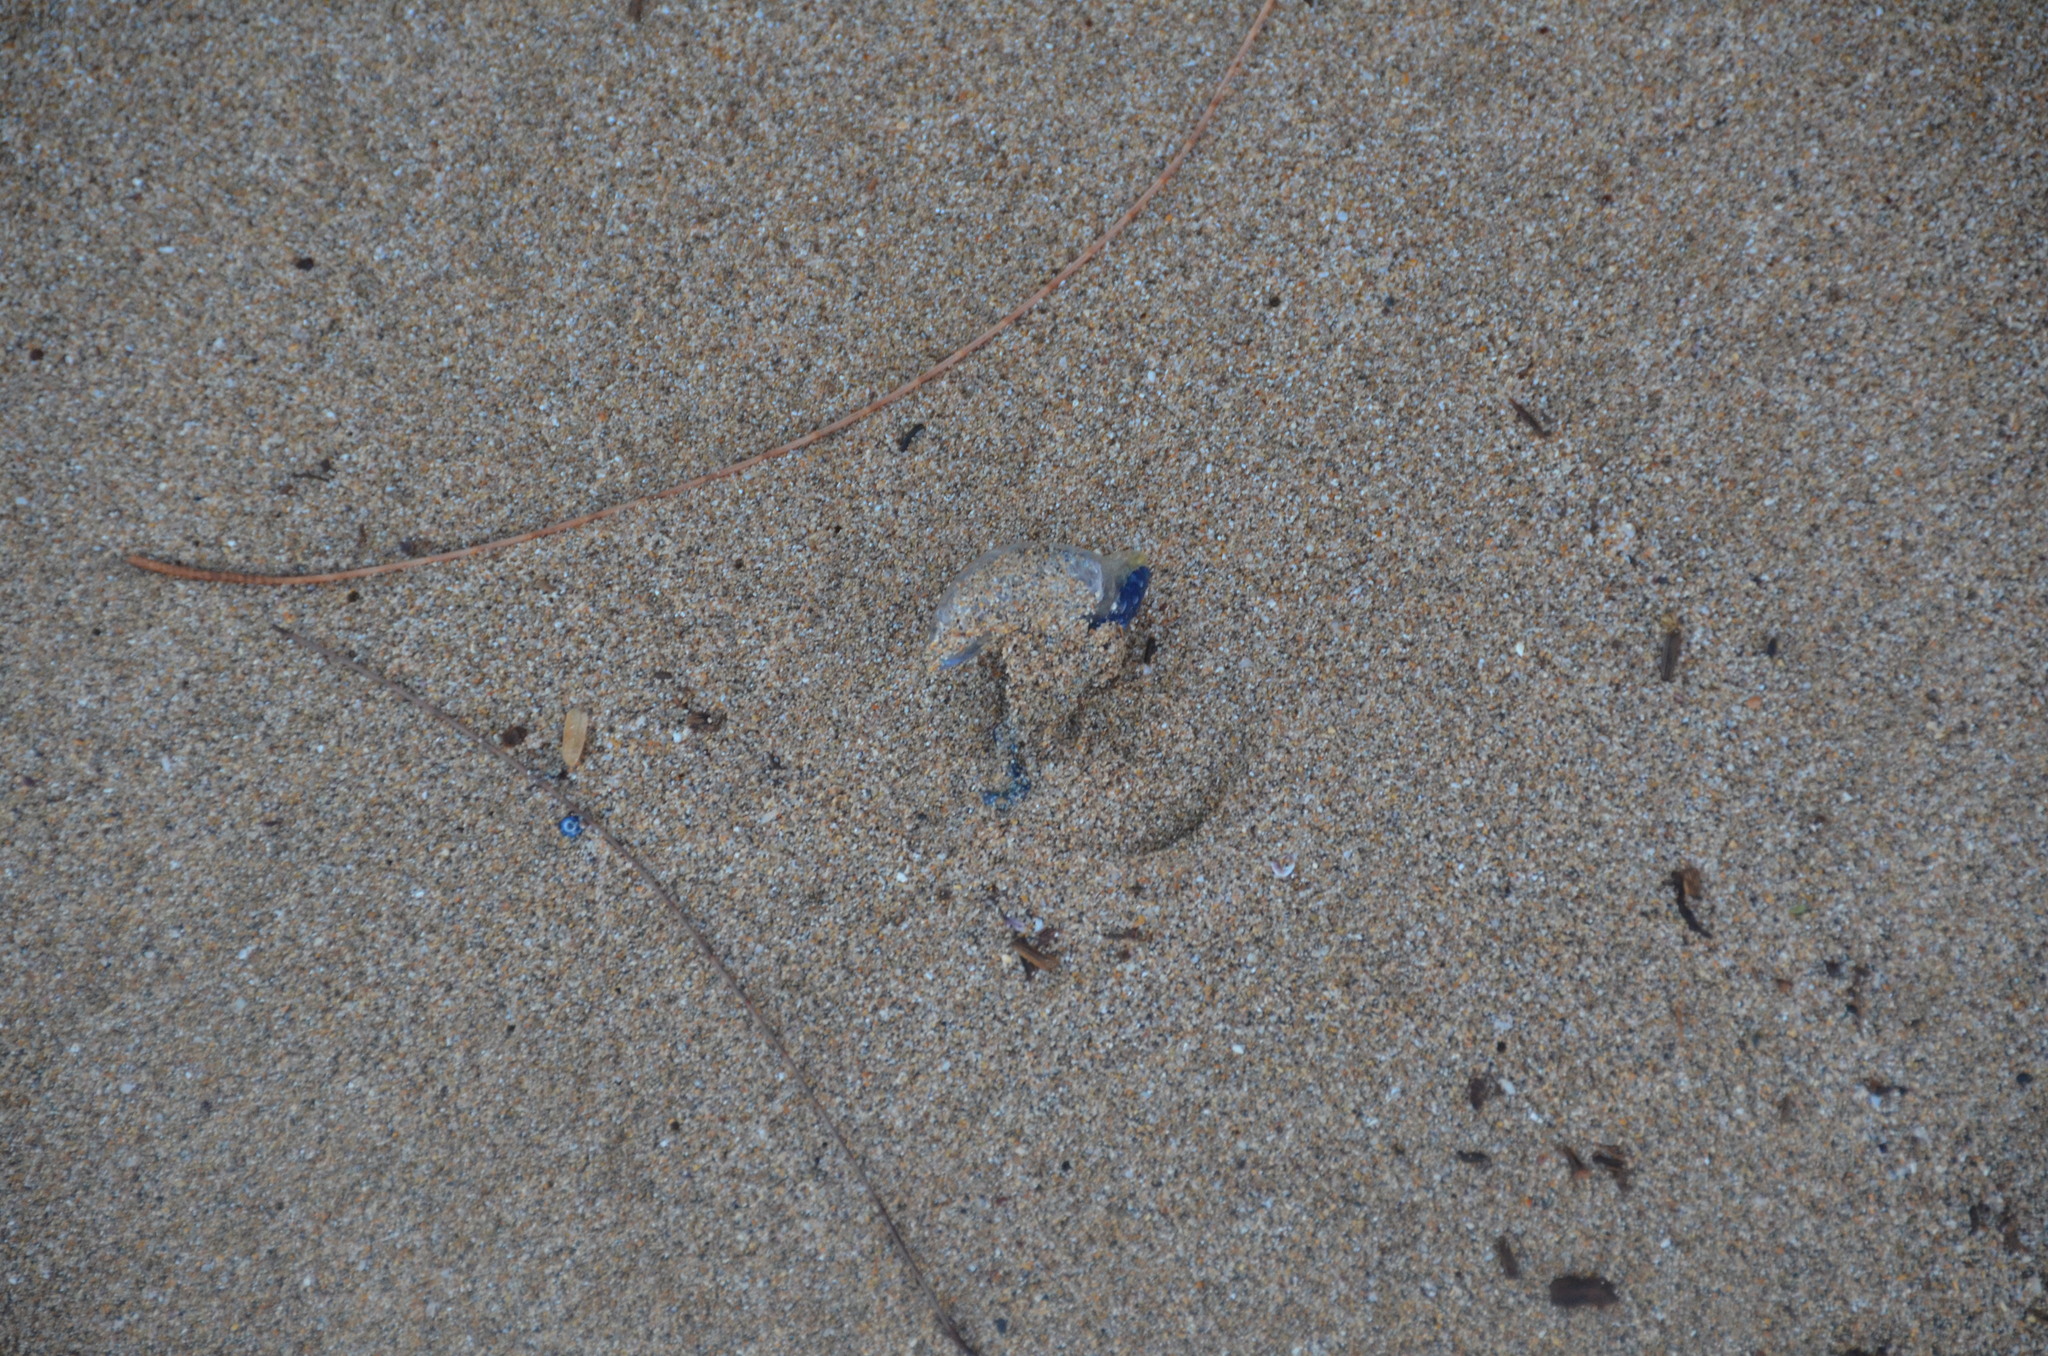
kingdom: Animalia
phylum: Cnidaria
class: Hydrozoa
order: Siphonophorae
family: Physaliidae
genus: Physalia
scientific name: Physalia physalis
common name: Portuguese man-of-war
